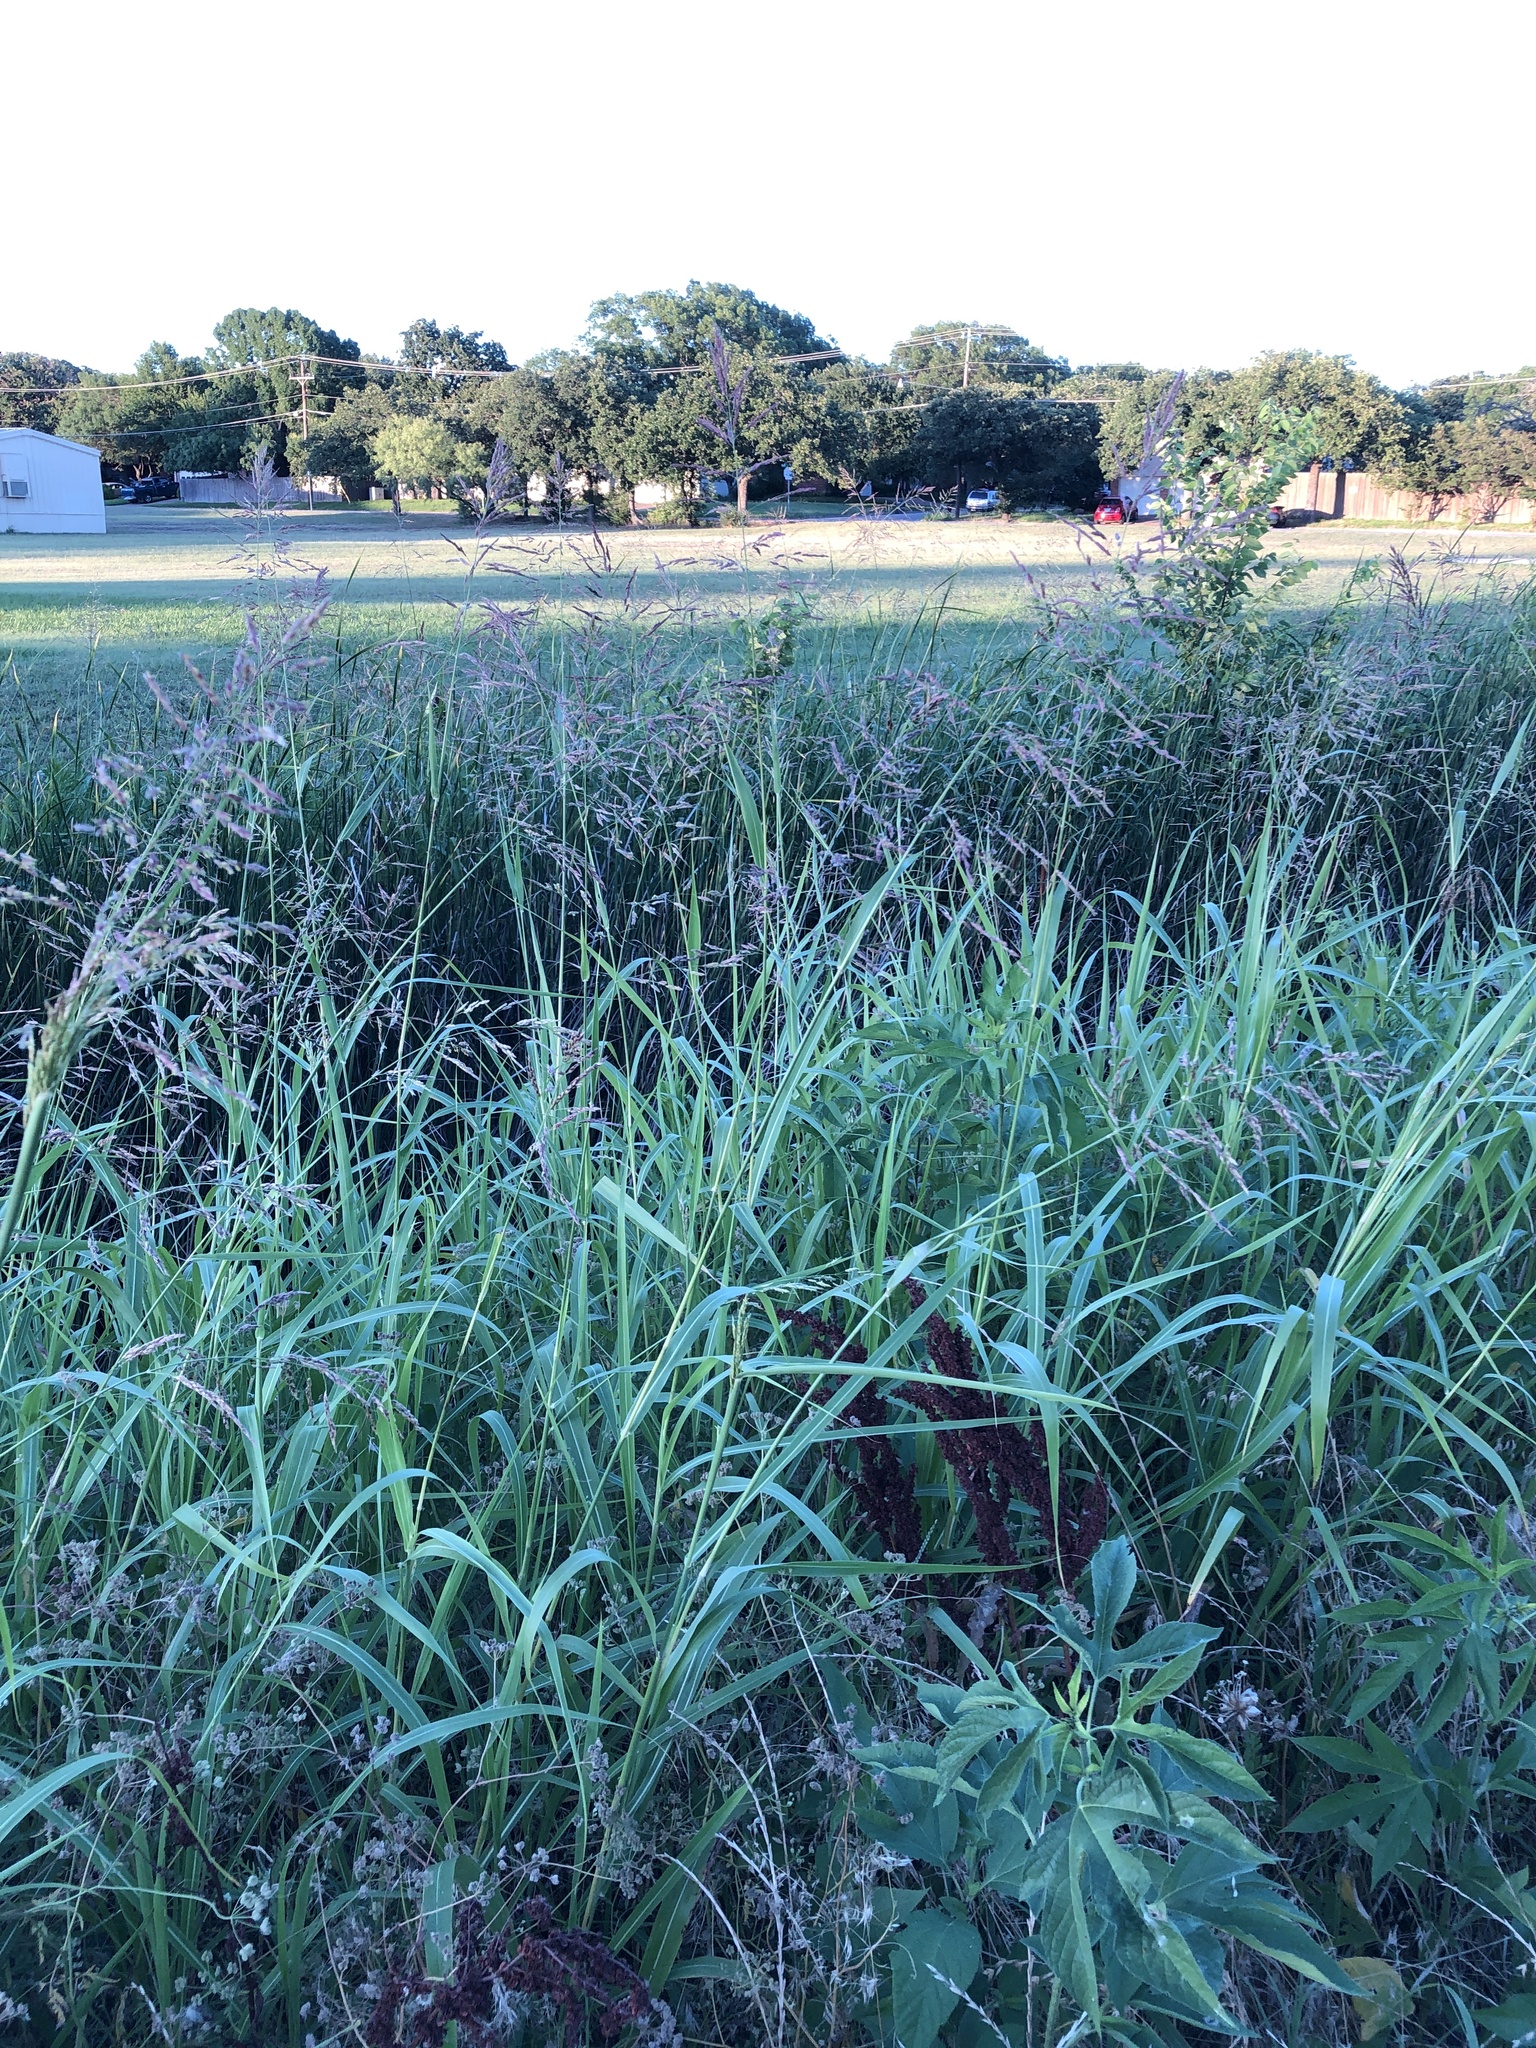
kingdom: Plantae
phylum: Tracheophyta
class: Liliopsida
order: Poales
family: Poaceae
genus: Sorghum
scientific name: Sorghum halepense
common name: Johnson-grass
